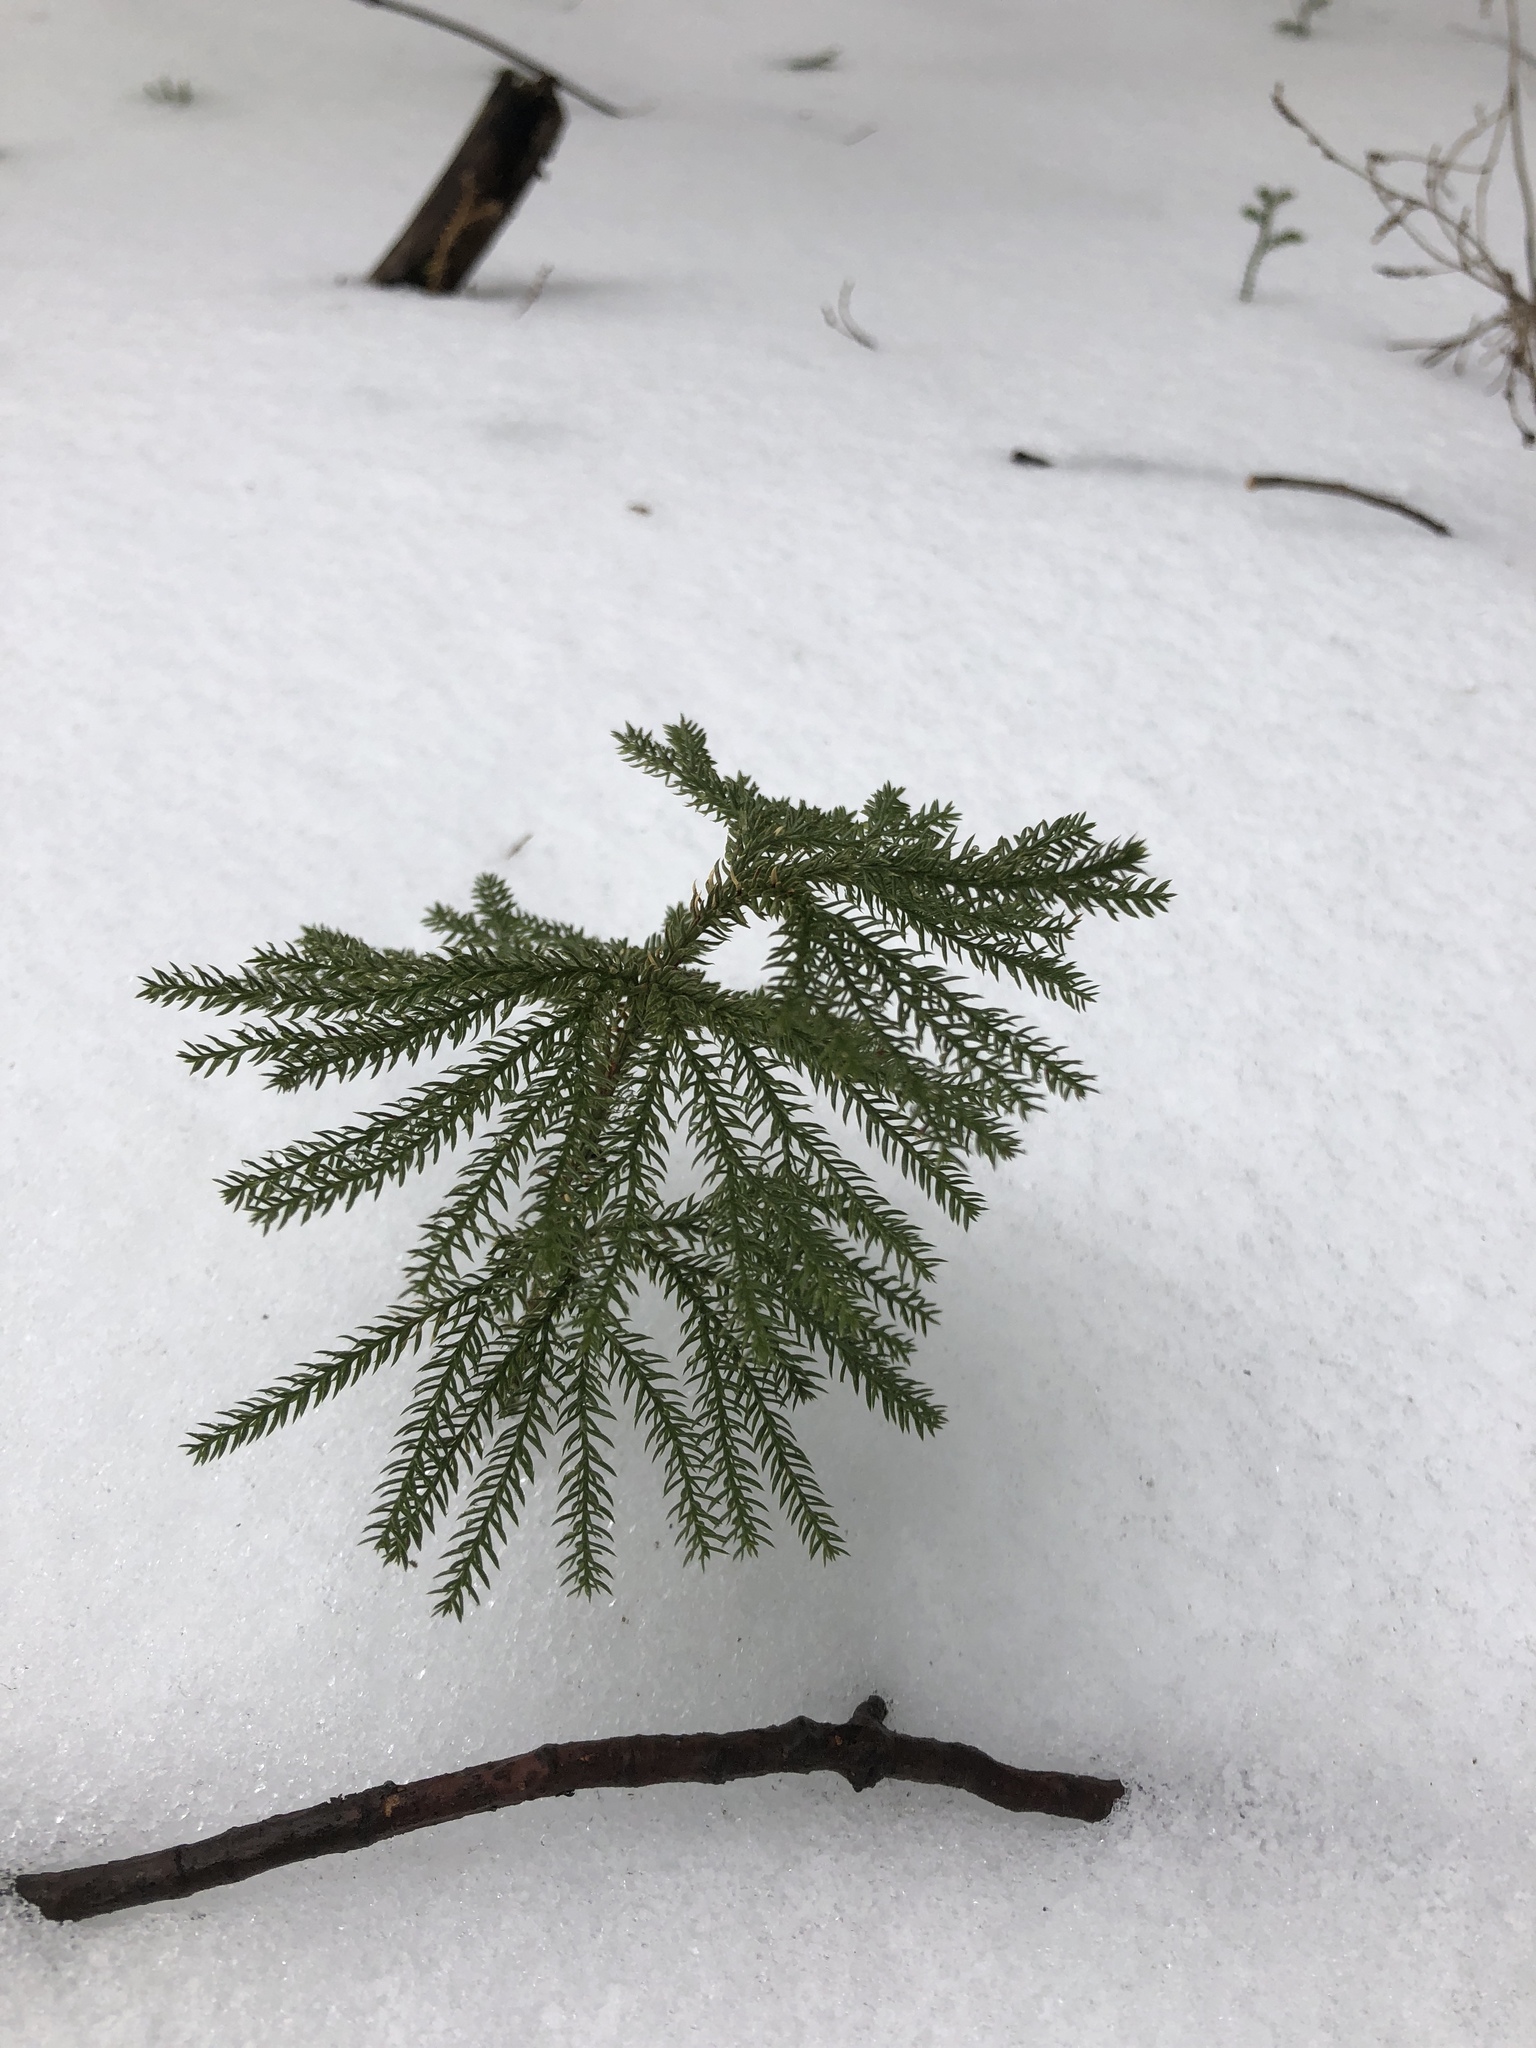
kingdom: Plantae
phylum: Tracheophyta
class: Lycopodiopsida
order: Lycopodiales
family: Lycopodiaceae
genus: Dendrolycopodium
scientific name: Dendrolycopodium dendroideum
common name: Northern tree-clubmoss
